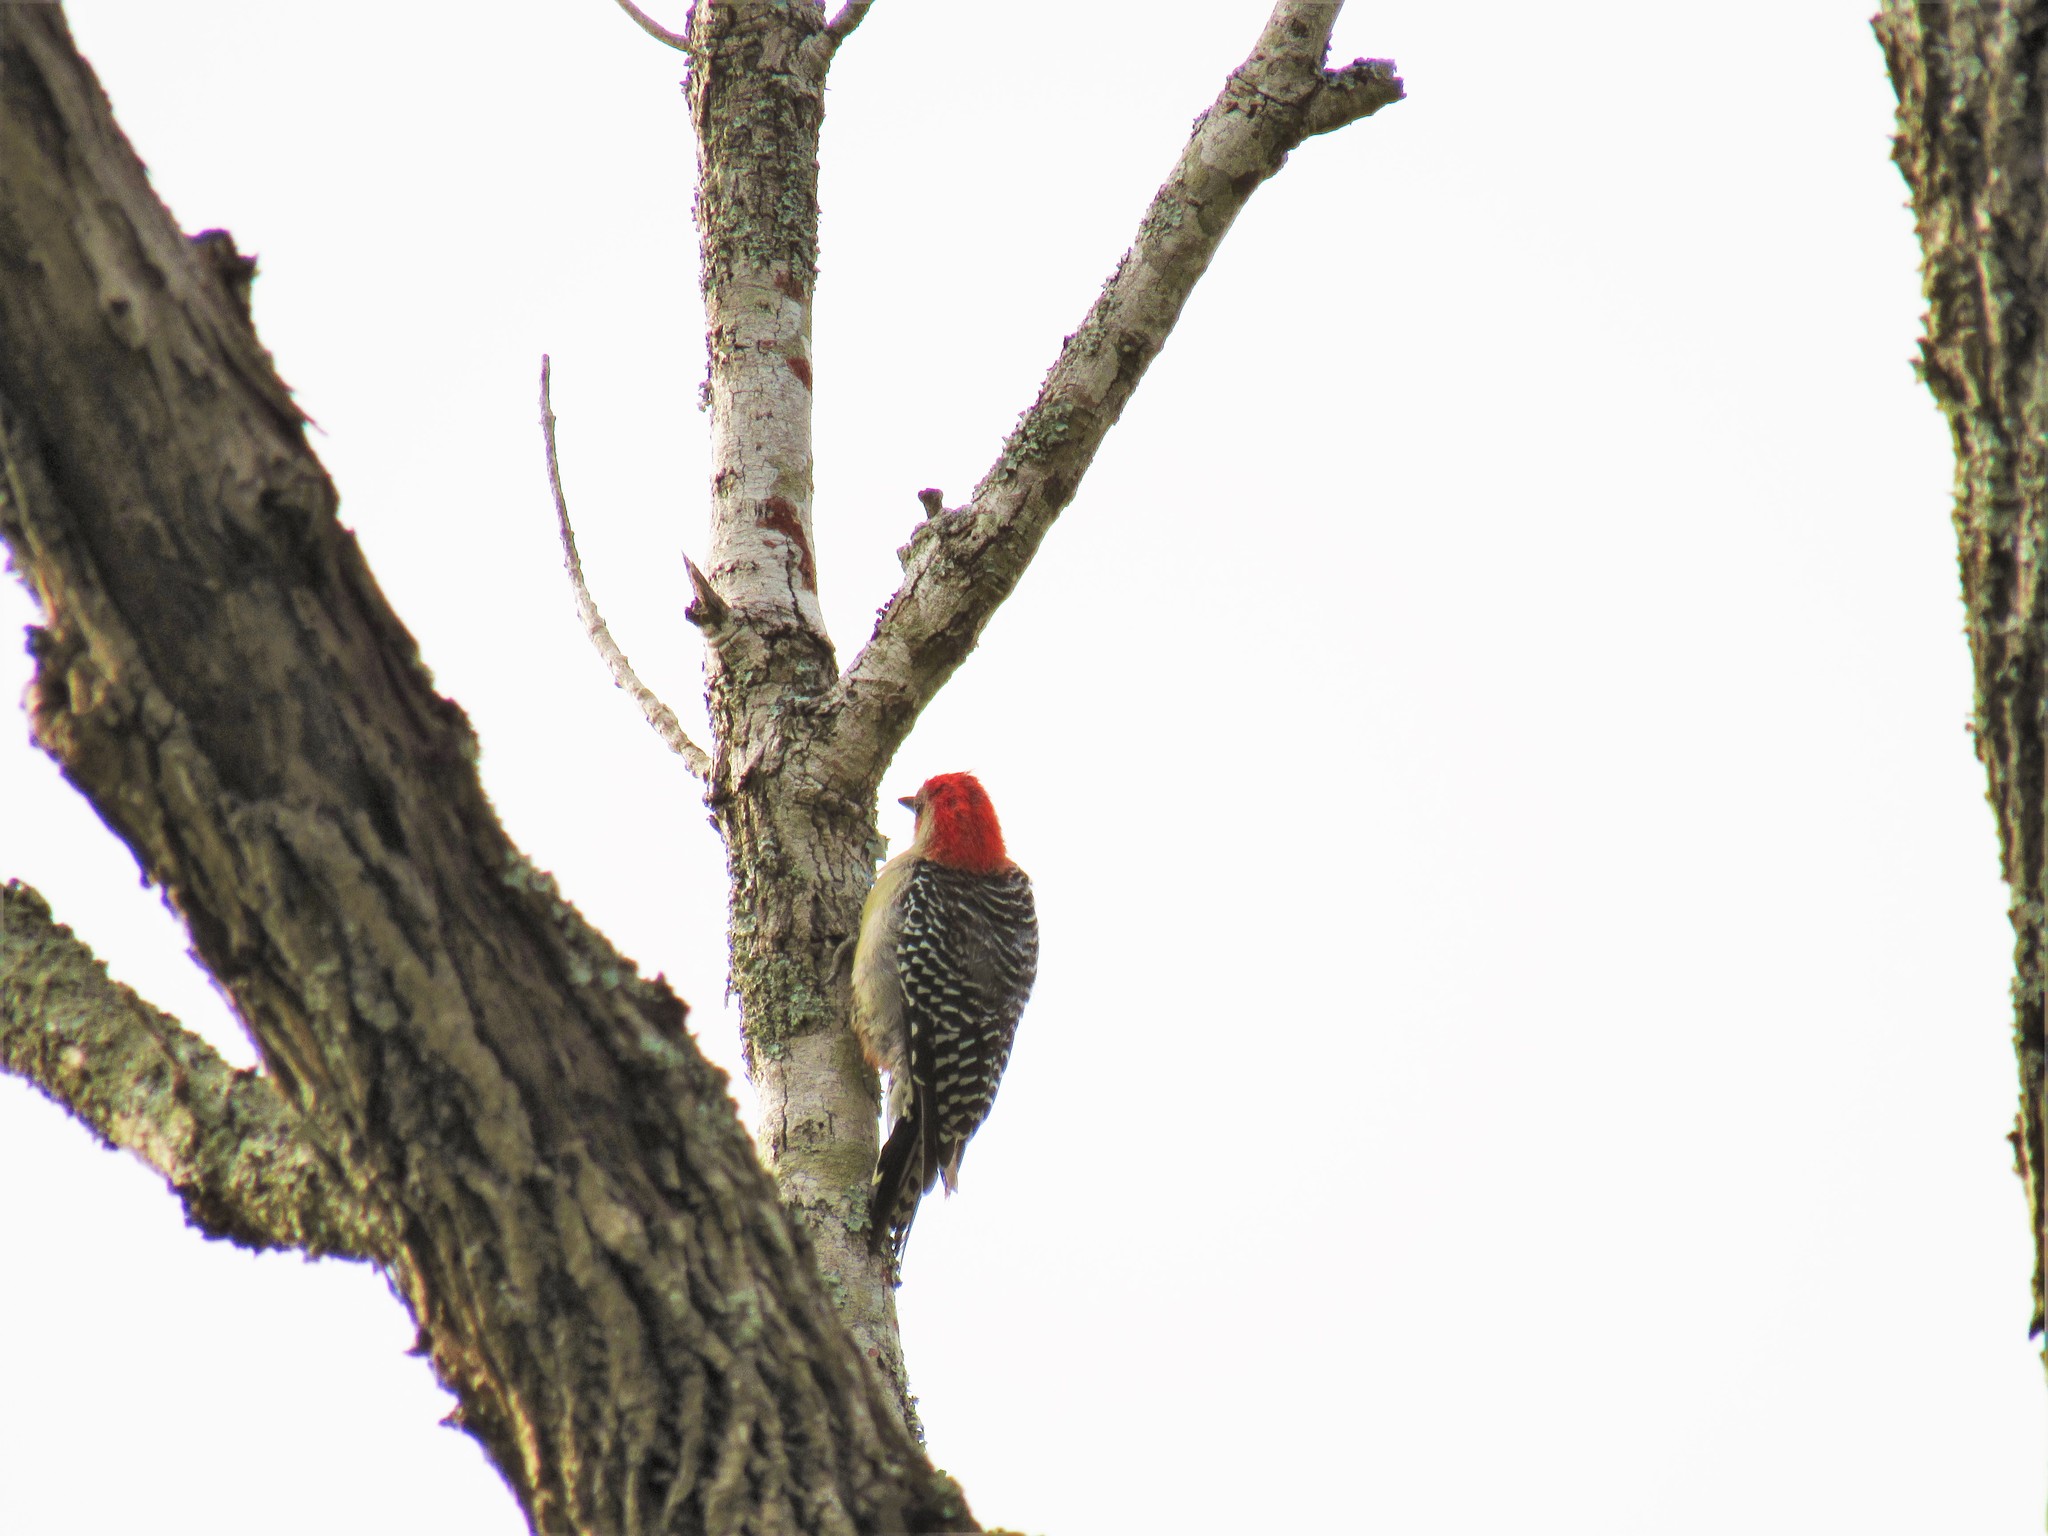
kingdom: Animalia
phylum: Chordata
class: Aves
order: Piciformes
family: Picidae
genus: Melanerpes
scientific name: Melanerpes carolinus
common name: Red-bellied woodpecker
